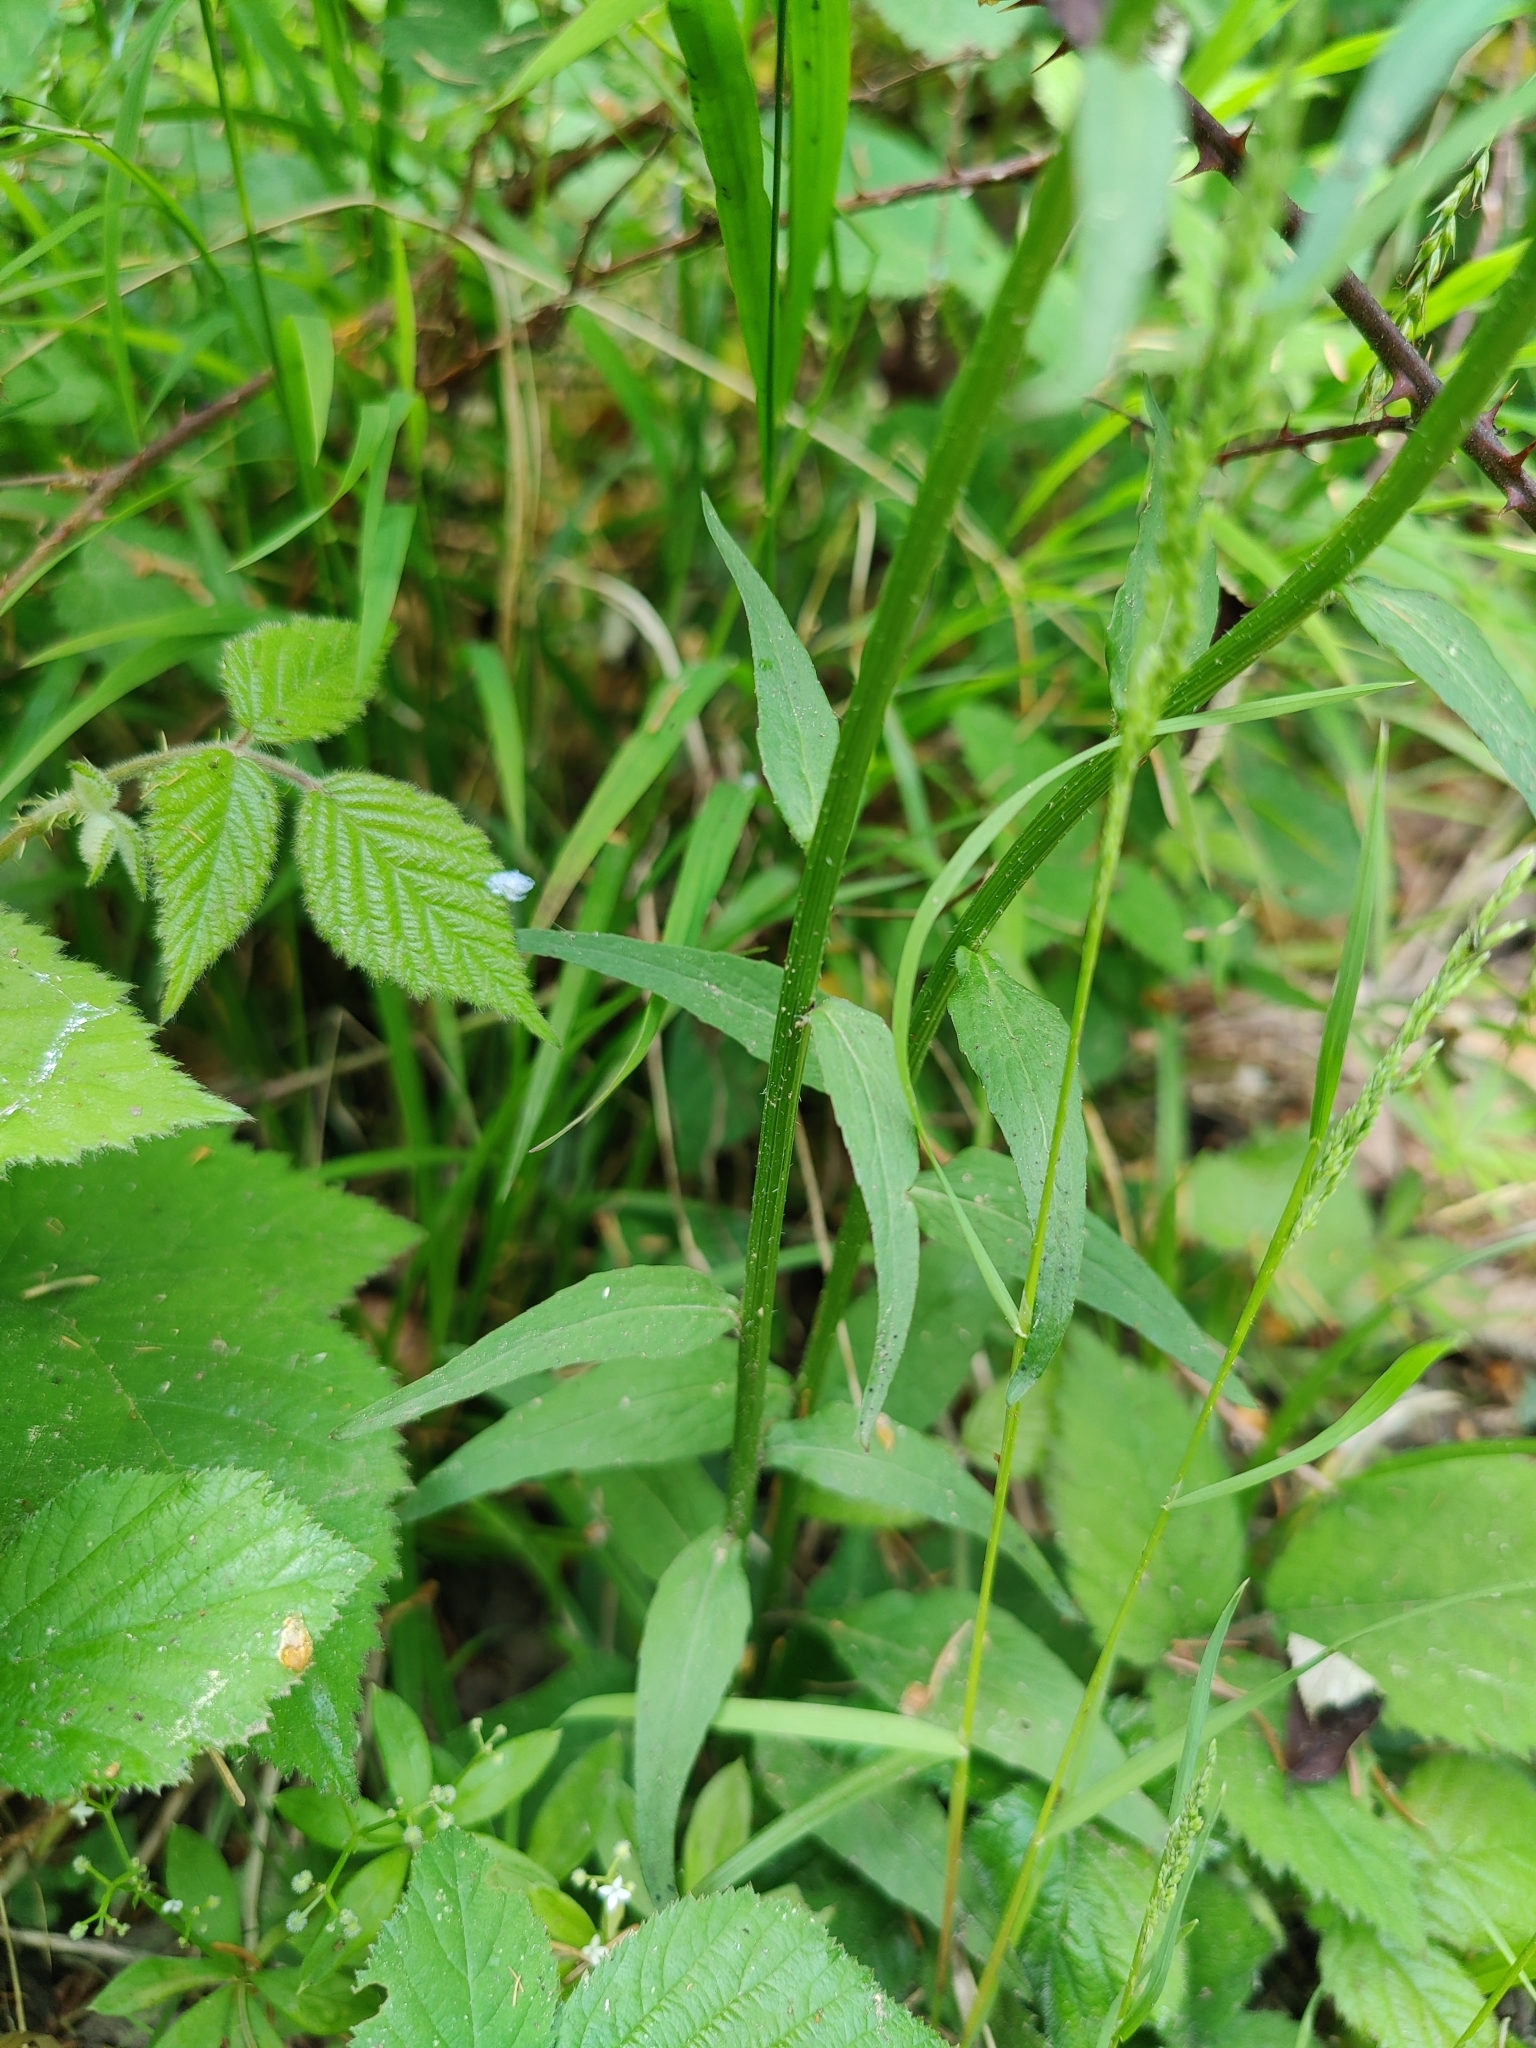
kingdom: Plantae
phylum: Tracheophyta
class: Magnoliopsida
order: Asterales
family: Campanulaceae
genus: Phyteuma
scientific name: Phyteuma nigrum
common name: Black rampion
